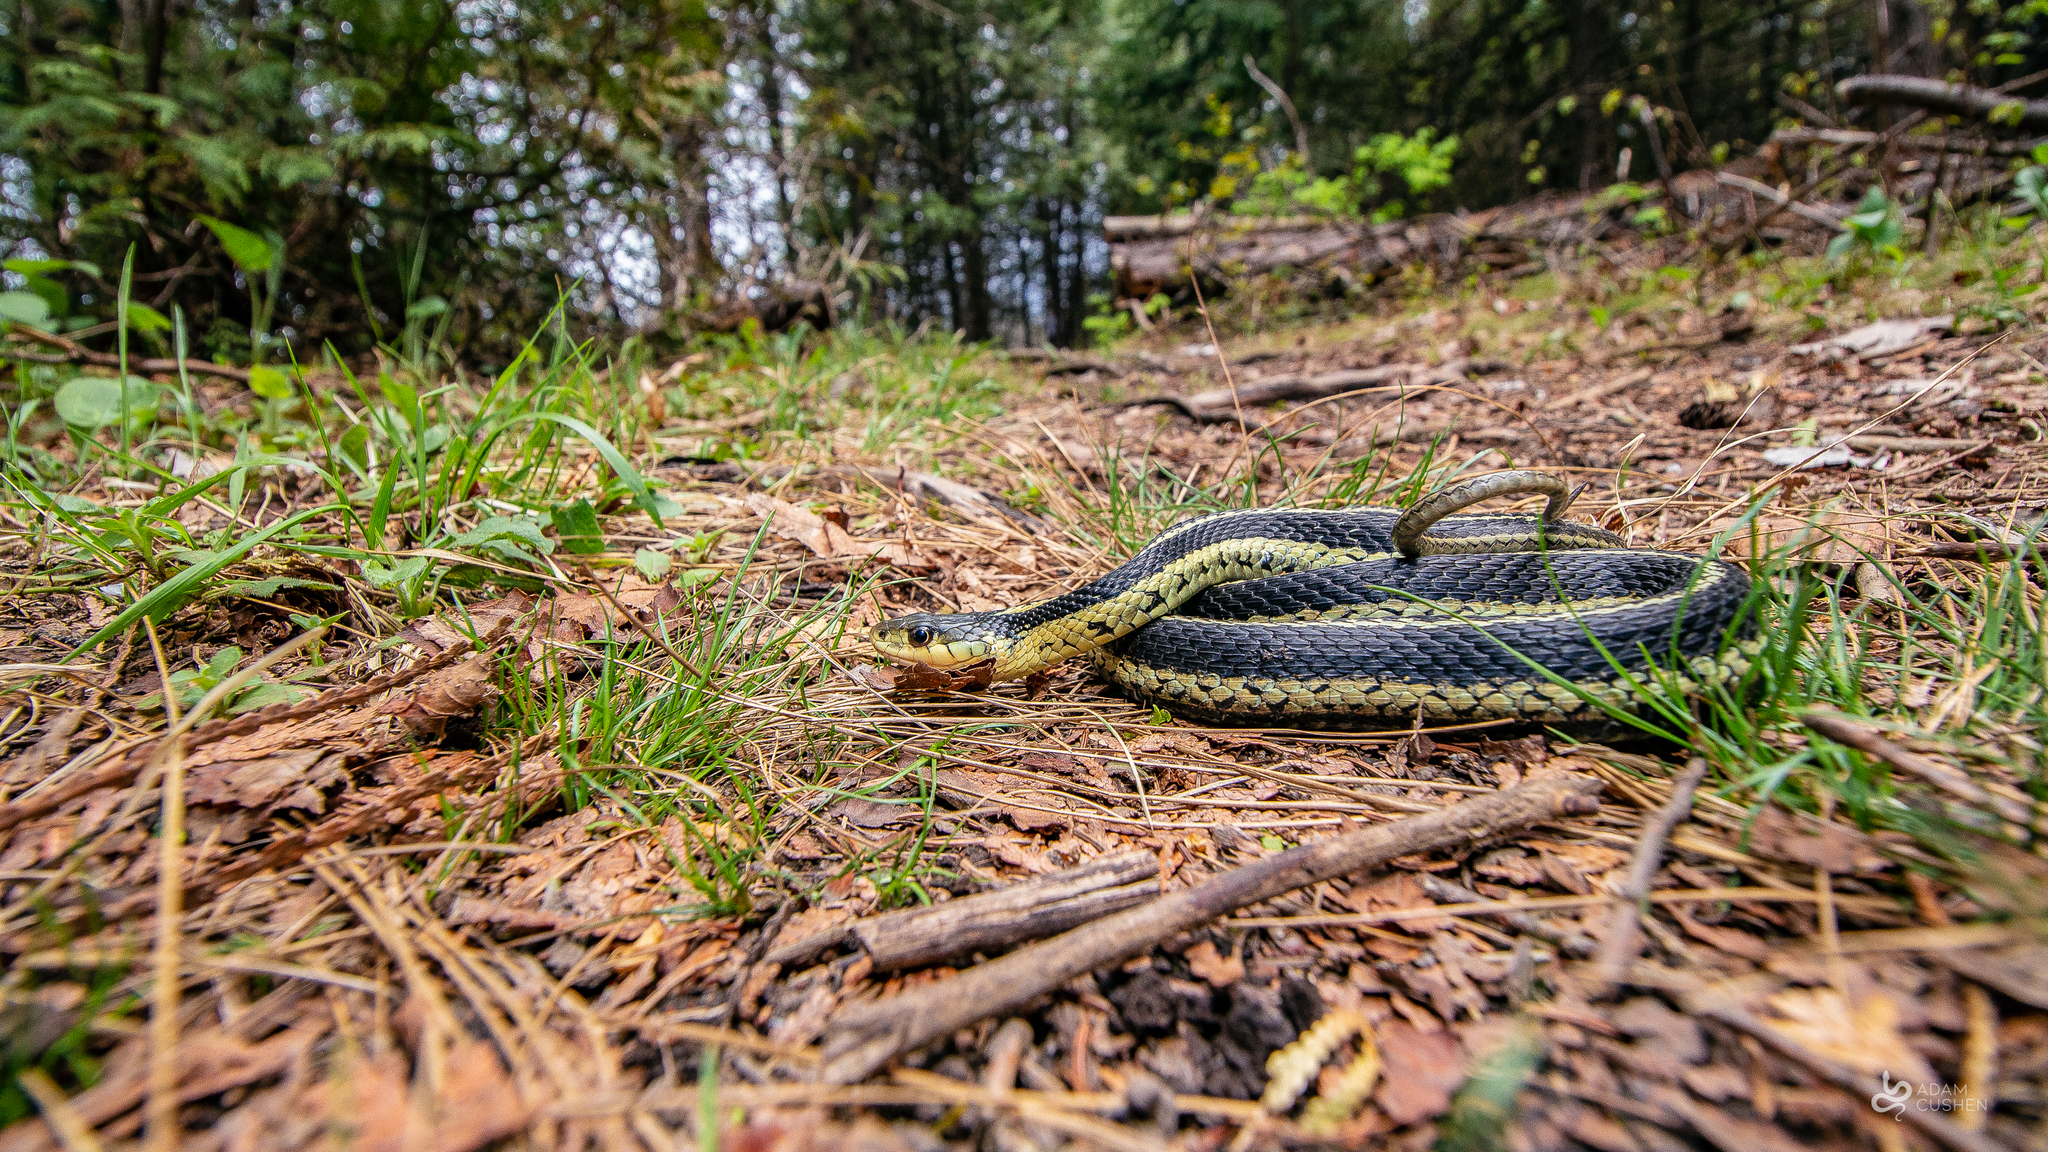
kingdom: Animalia
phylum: Chordata
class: Squamata
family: Colubridae
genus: Thamnophis
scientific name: Thamnophis sirtalis
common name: Common garter snake
